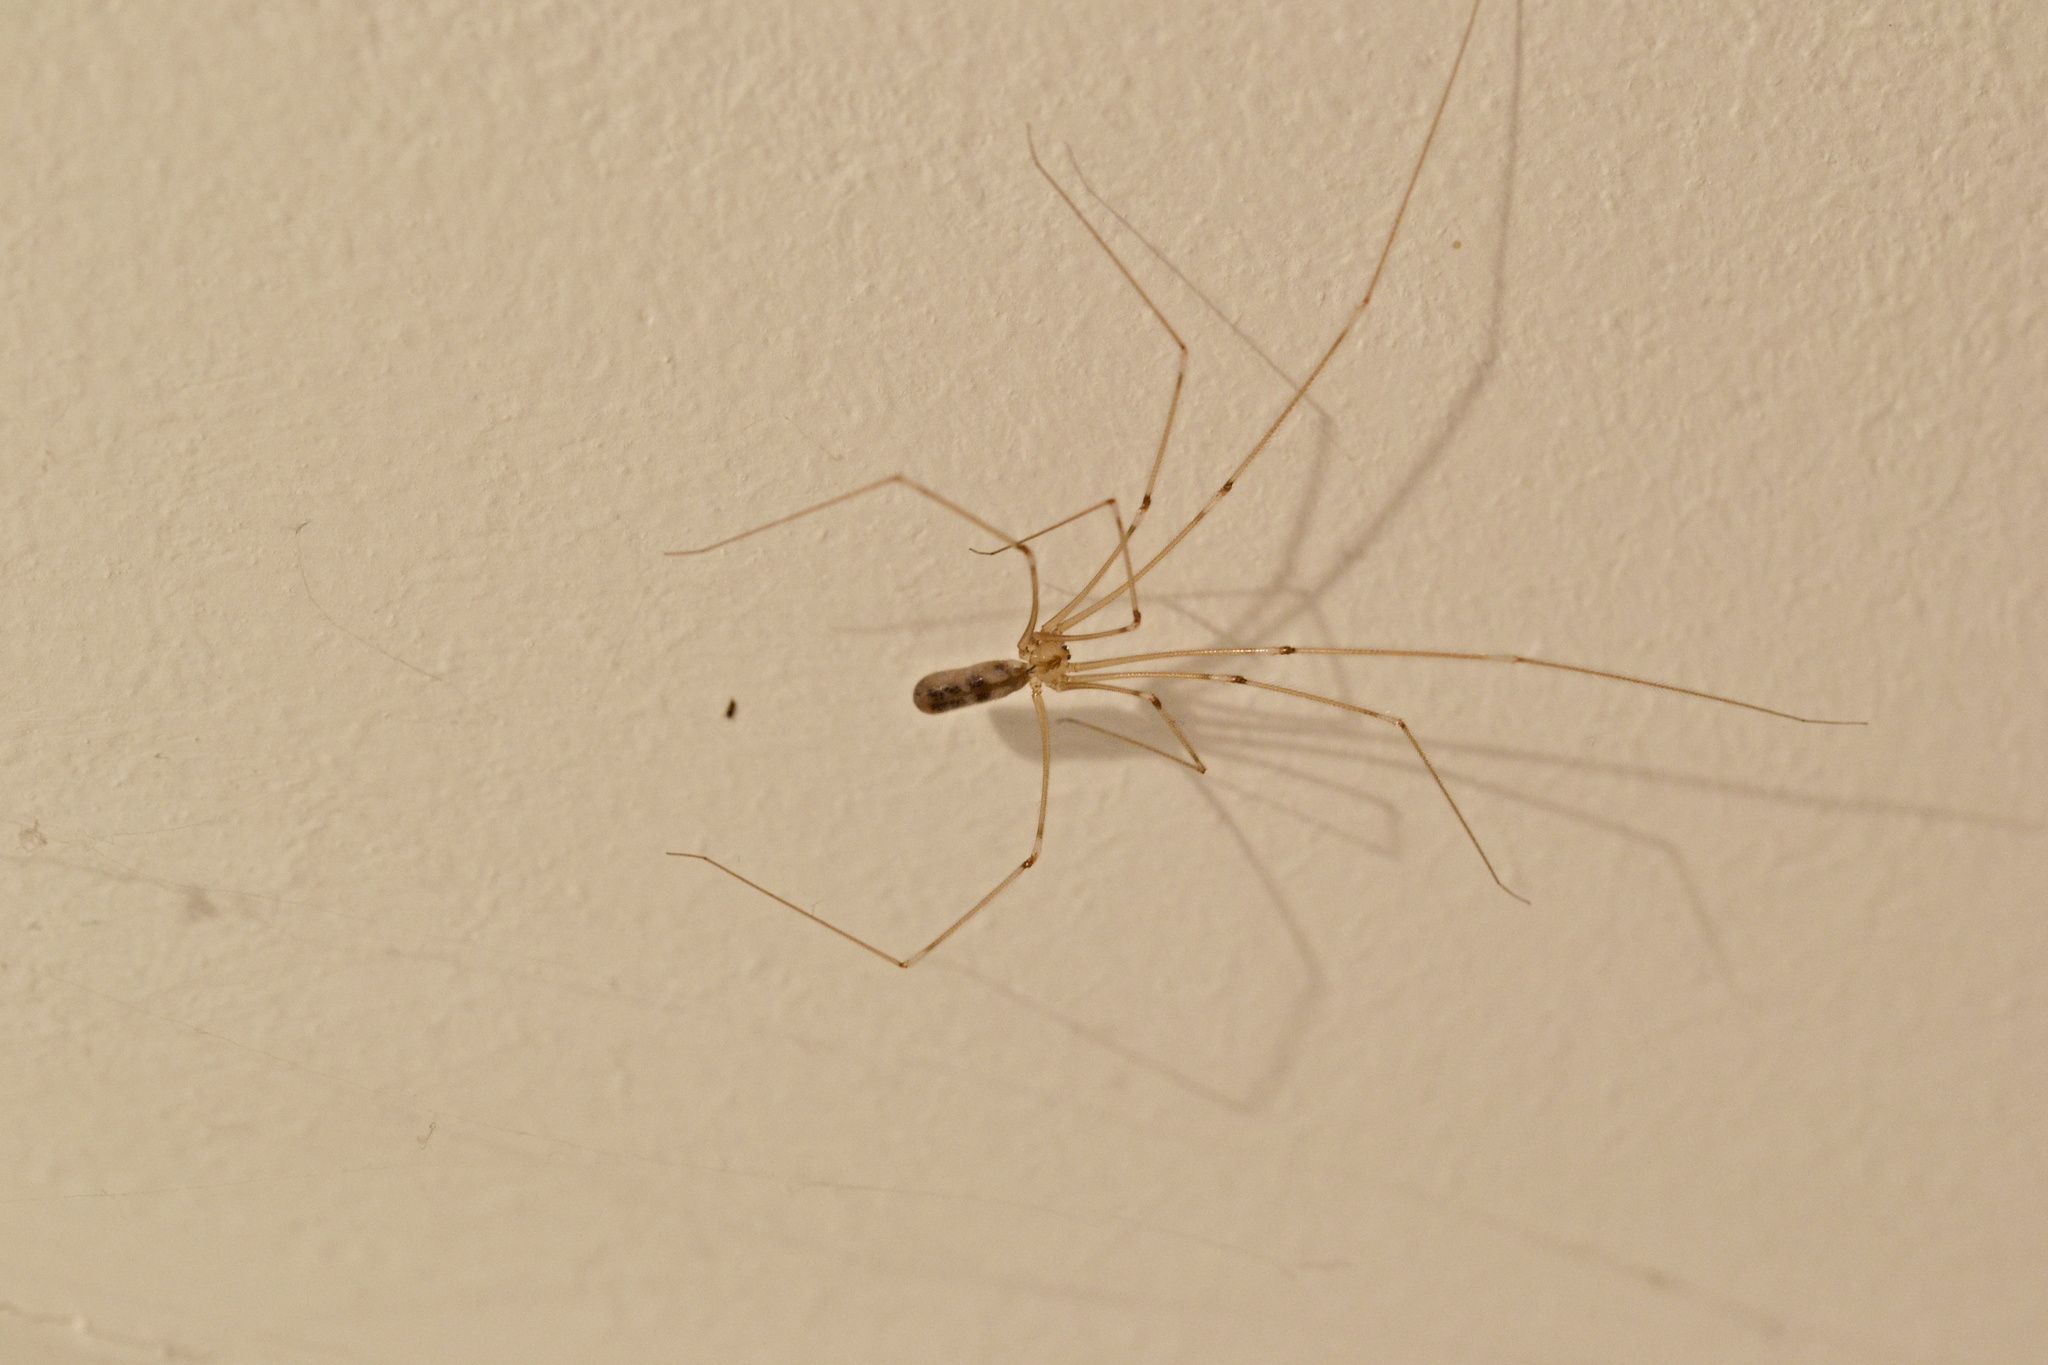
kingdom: Animalia
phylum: Arthropoda
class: Arachnida
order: Araneae
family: Pholcidae
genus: Pholcus
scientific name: Pholcus phalangioides
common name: Longbodied cellar spider
